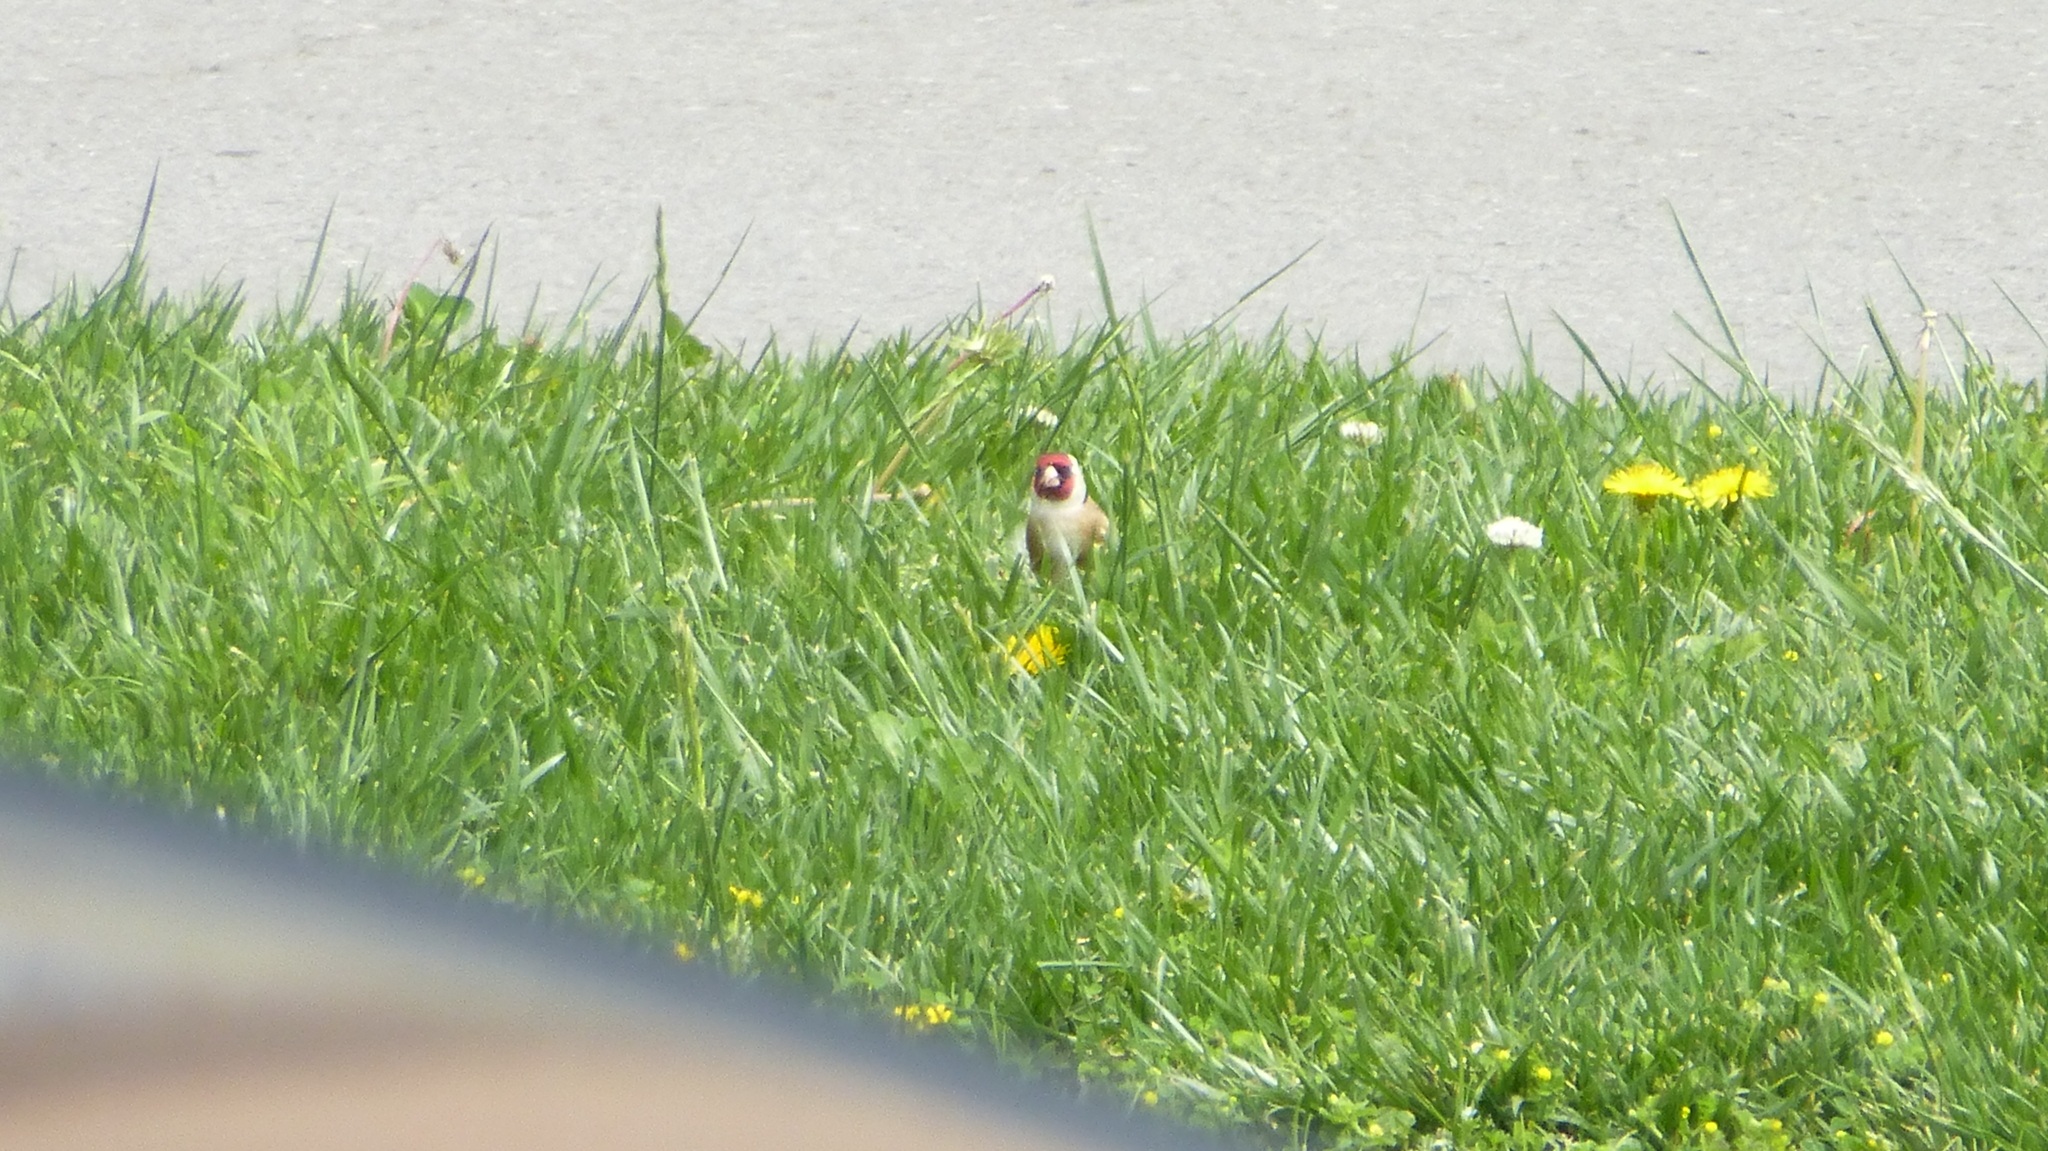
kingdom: Animalia
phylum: Chordata
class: Aves
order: Passeriformes
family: Fringillidae
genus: Carduelis
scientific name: Carduelis carduelis
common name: European goldfinch
